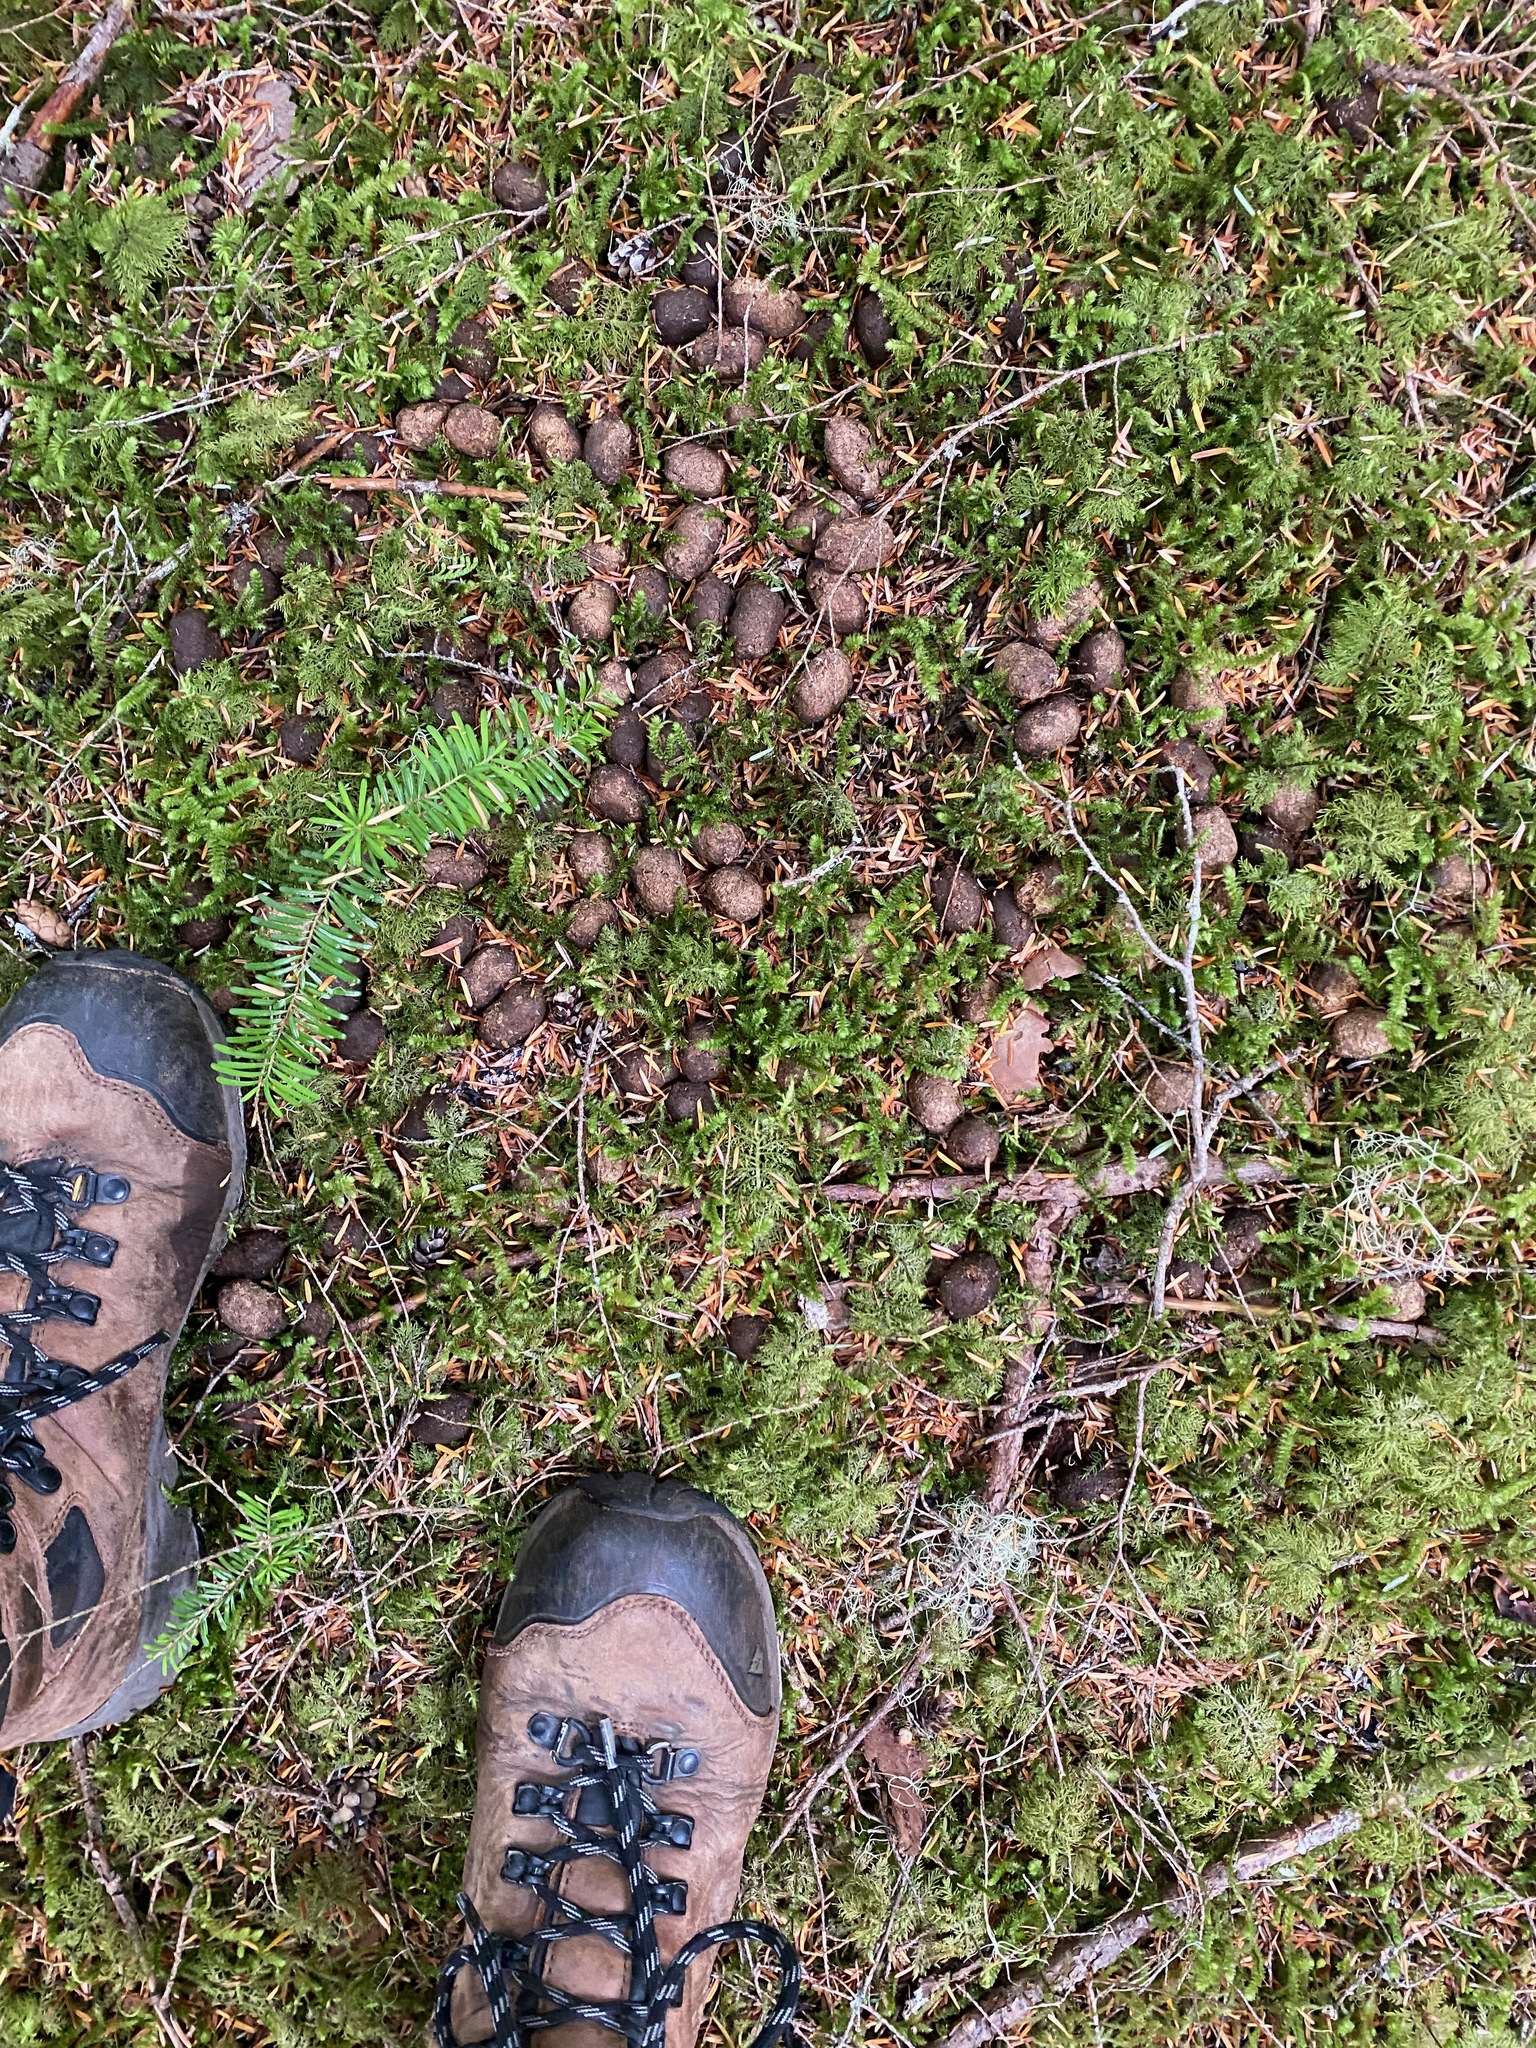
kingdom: Animalia
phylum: Chordata
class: Mammalia
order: Artiodactyla
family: Cervidae
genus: Alces
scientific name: Alces alces
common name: Moose
